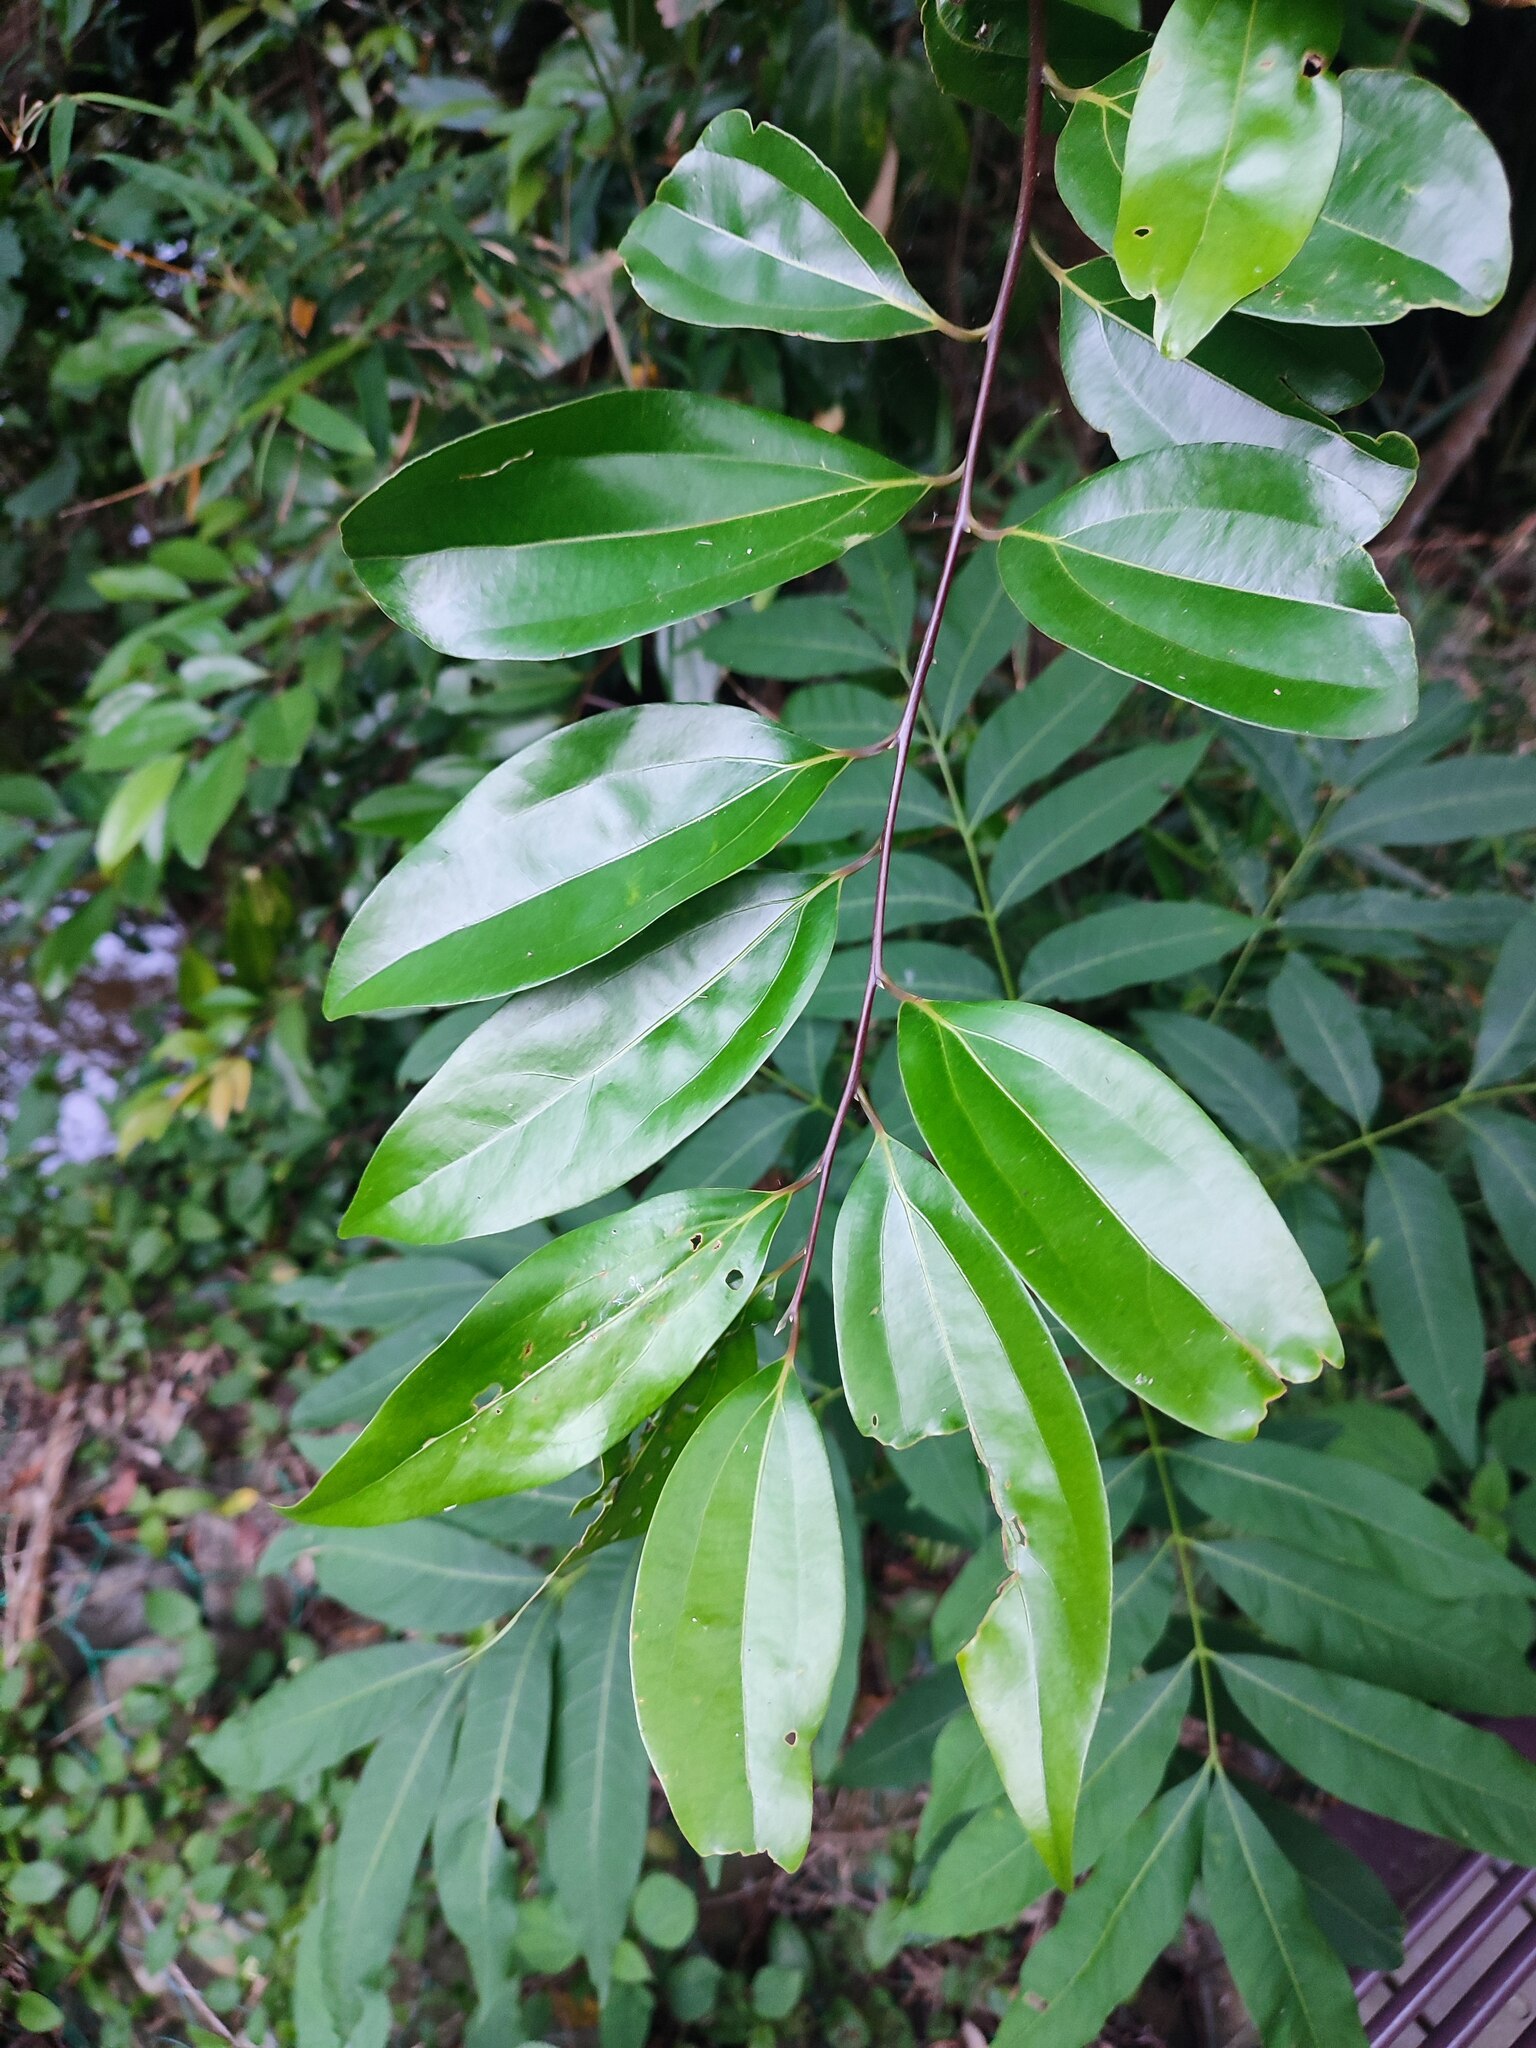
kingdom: Plantae
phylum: Tracheophyta
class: Magnoliopsida
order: Laurales
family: Lauraceae
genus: Cinnamomum
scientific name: Cinnamomum burmanni
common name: Padang cassia
